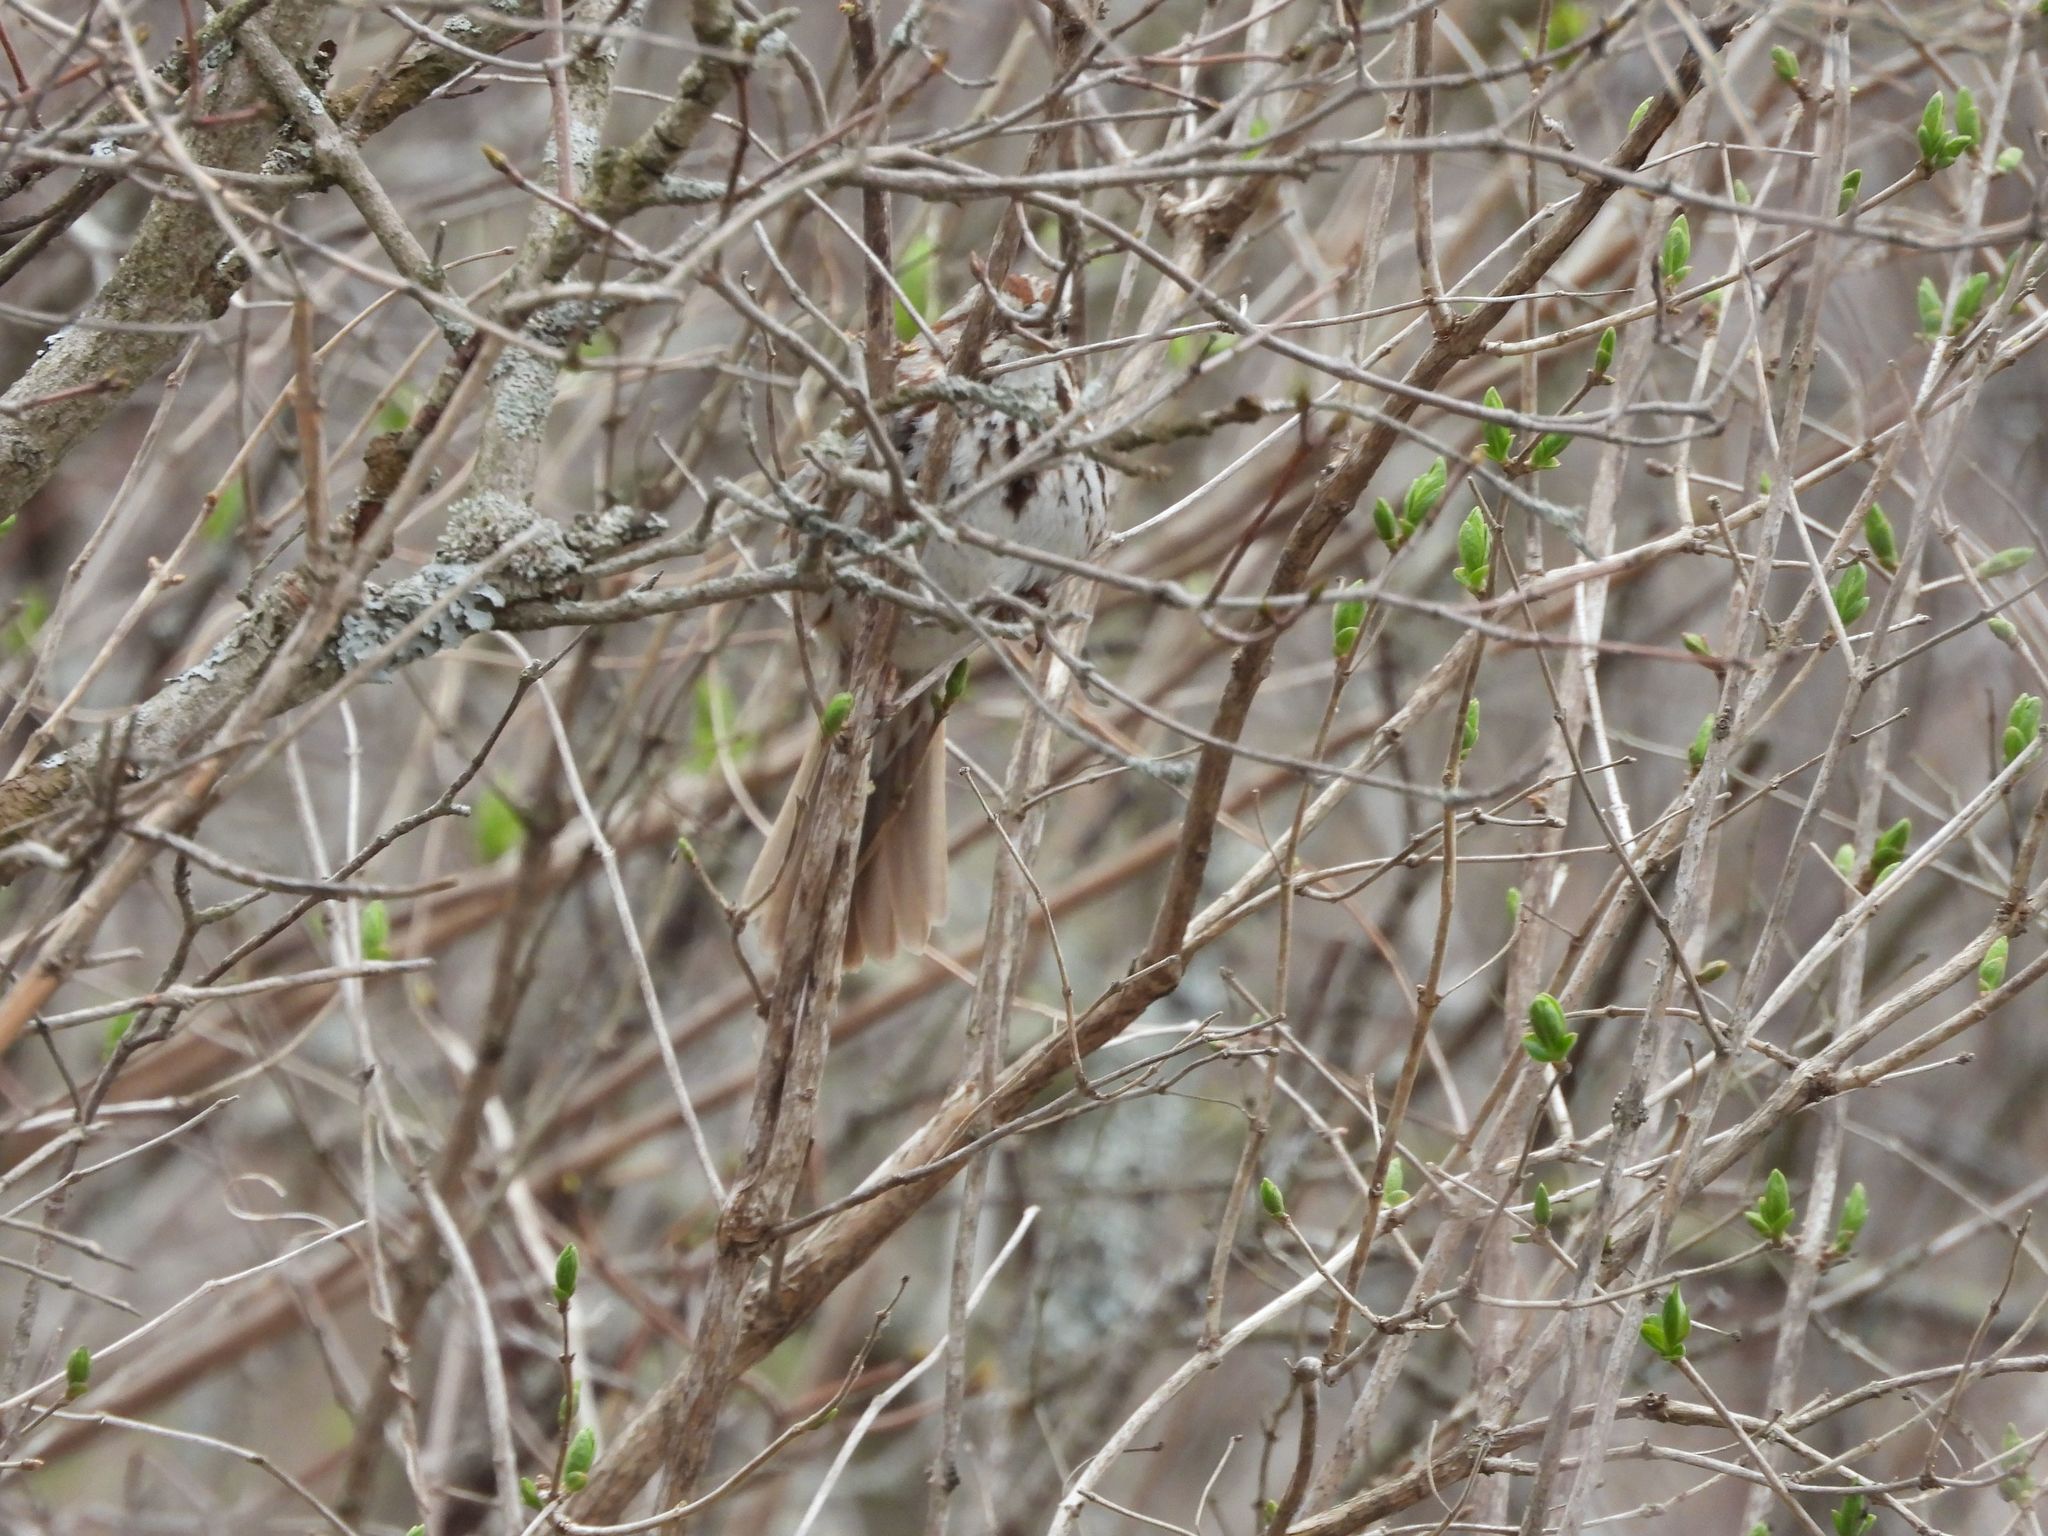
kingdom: Animalia
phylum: Chordata
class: Aves
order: Passeriformes
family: Passerellidae
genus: Melospiza
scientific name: Melospiza melodia
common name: Song sparrow
